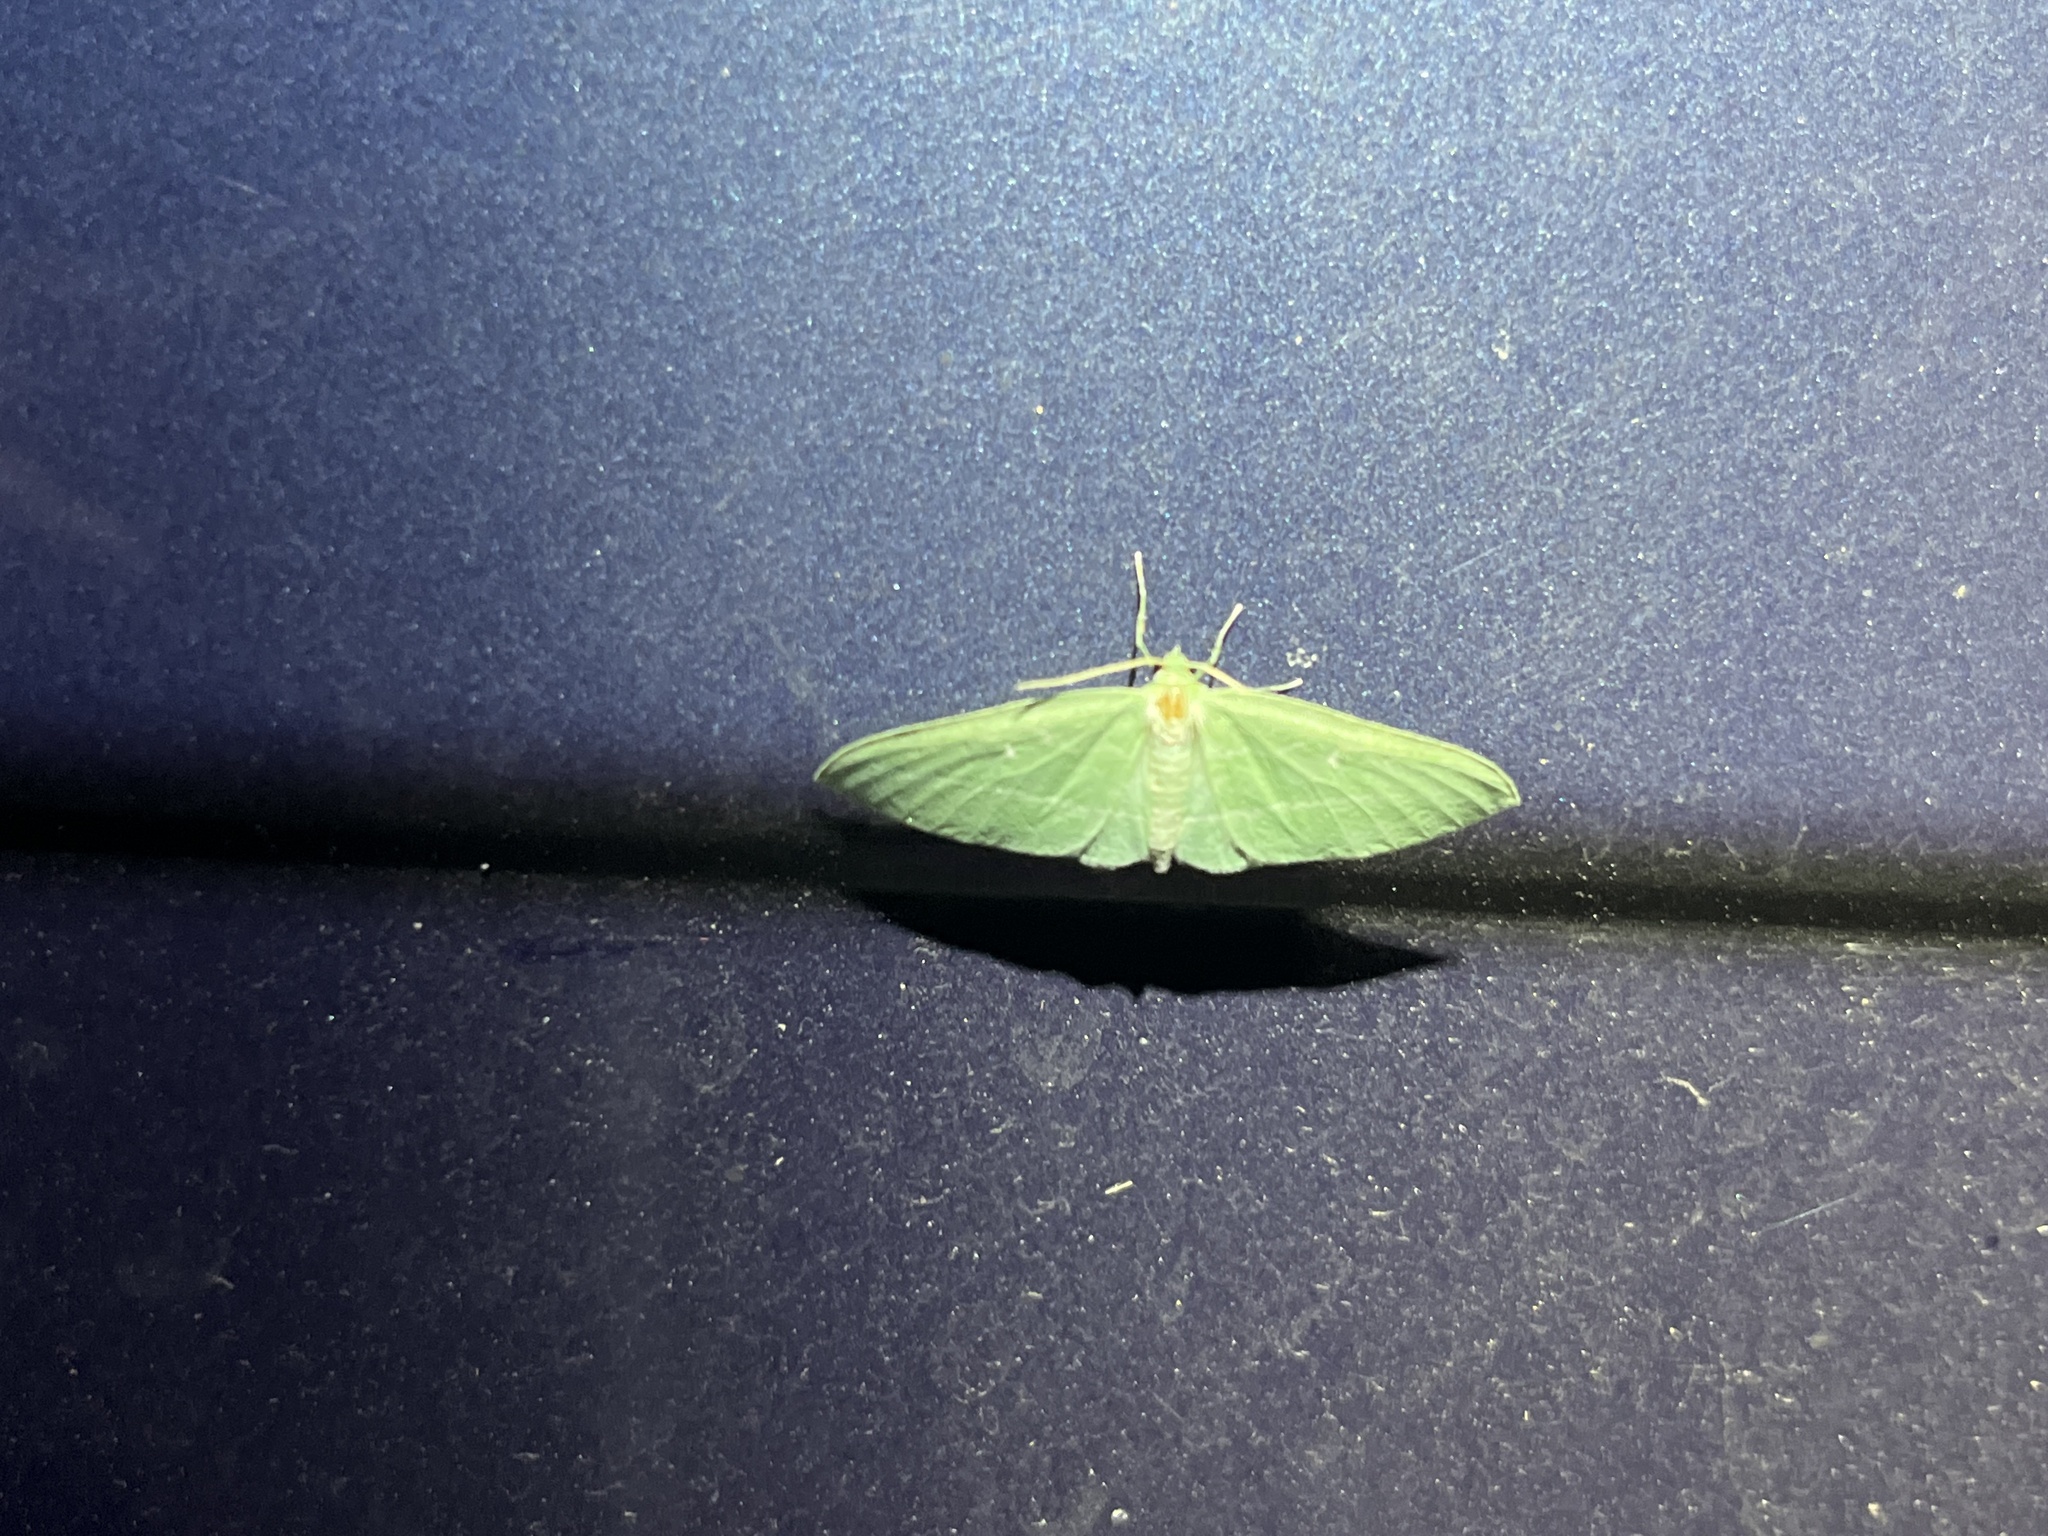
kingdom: Animalia
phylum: Arthropoda
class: Insecta
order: Lepidoptera
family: Geometridae
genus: Dyspteris
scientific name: Dyspteris abortivaria
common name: Bad-wing
